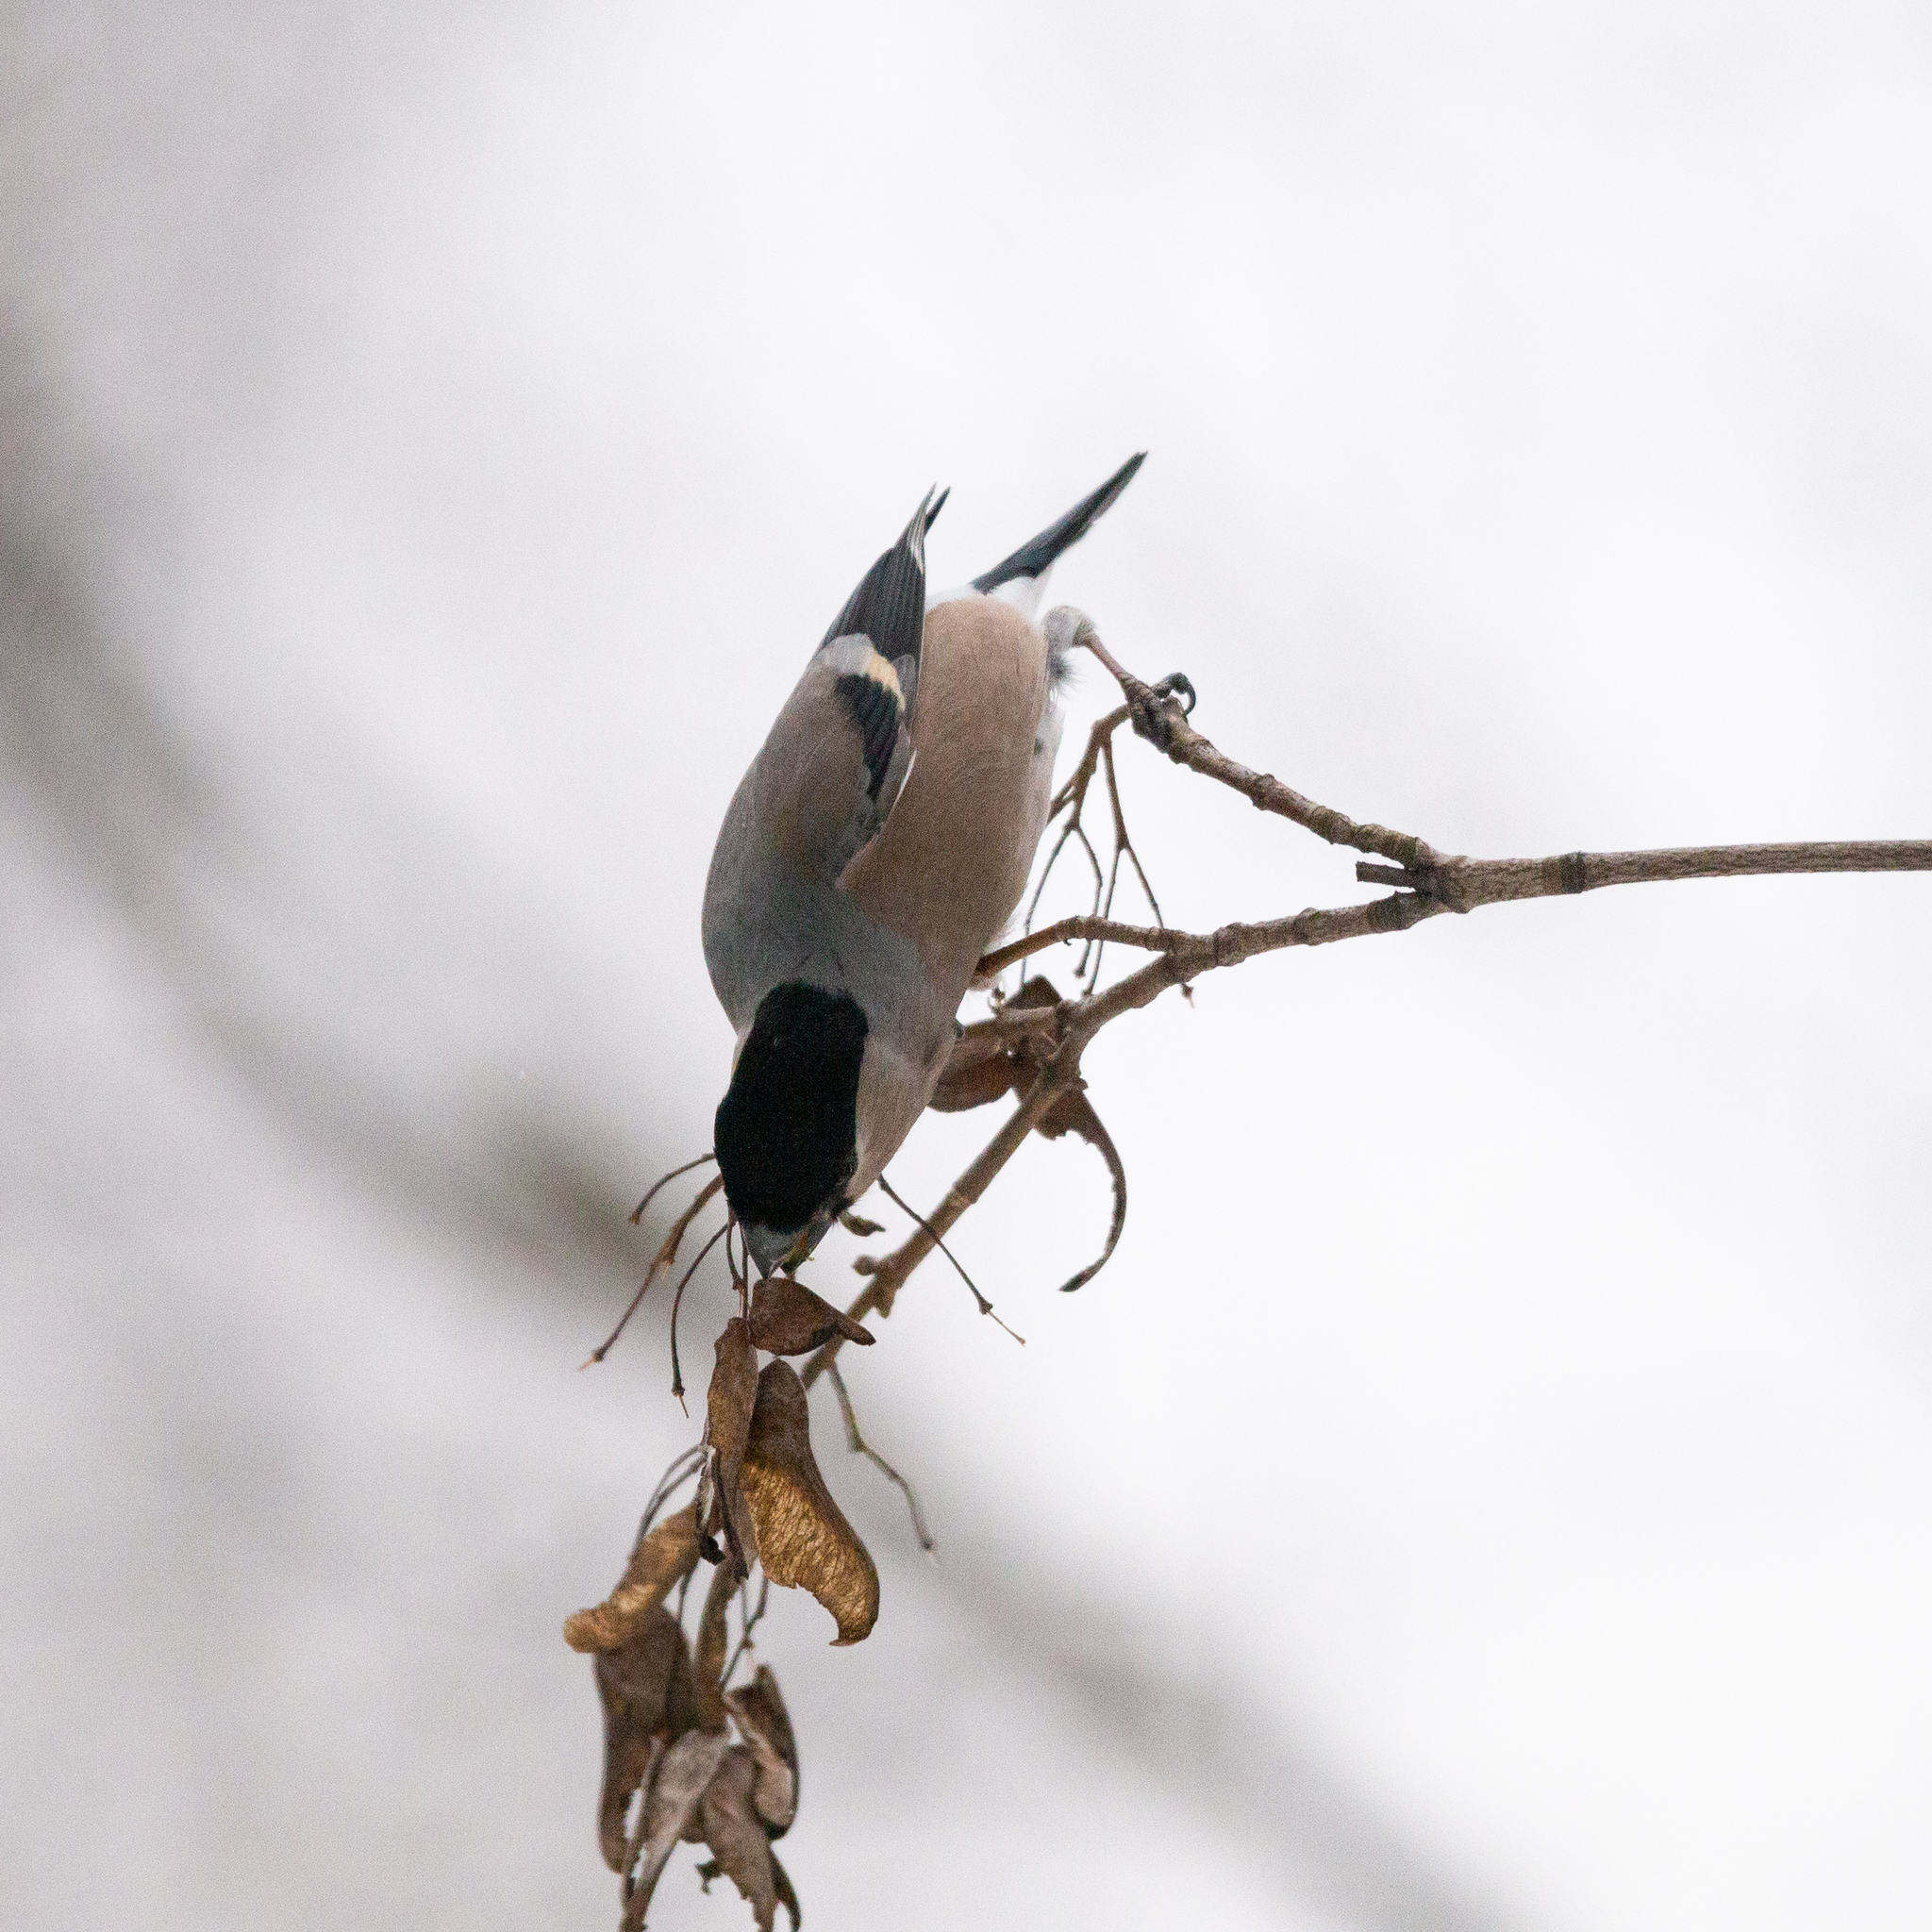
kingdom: Animalia
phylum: Chordata
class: Aves
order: Passeriformes
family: Fringillidae
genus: Pyrrhula
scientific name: Pyrrhula pyrrhula
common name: Eurasian bullfinch
